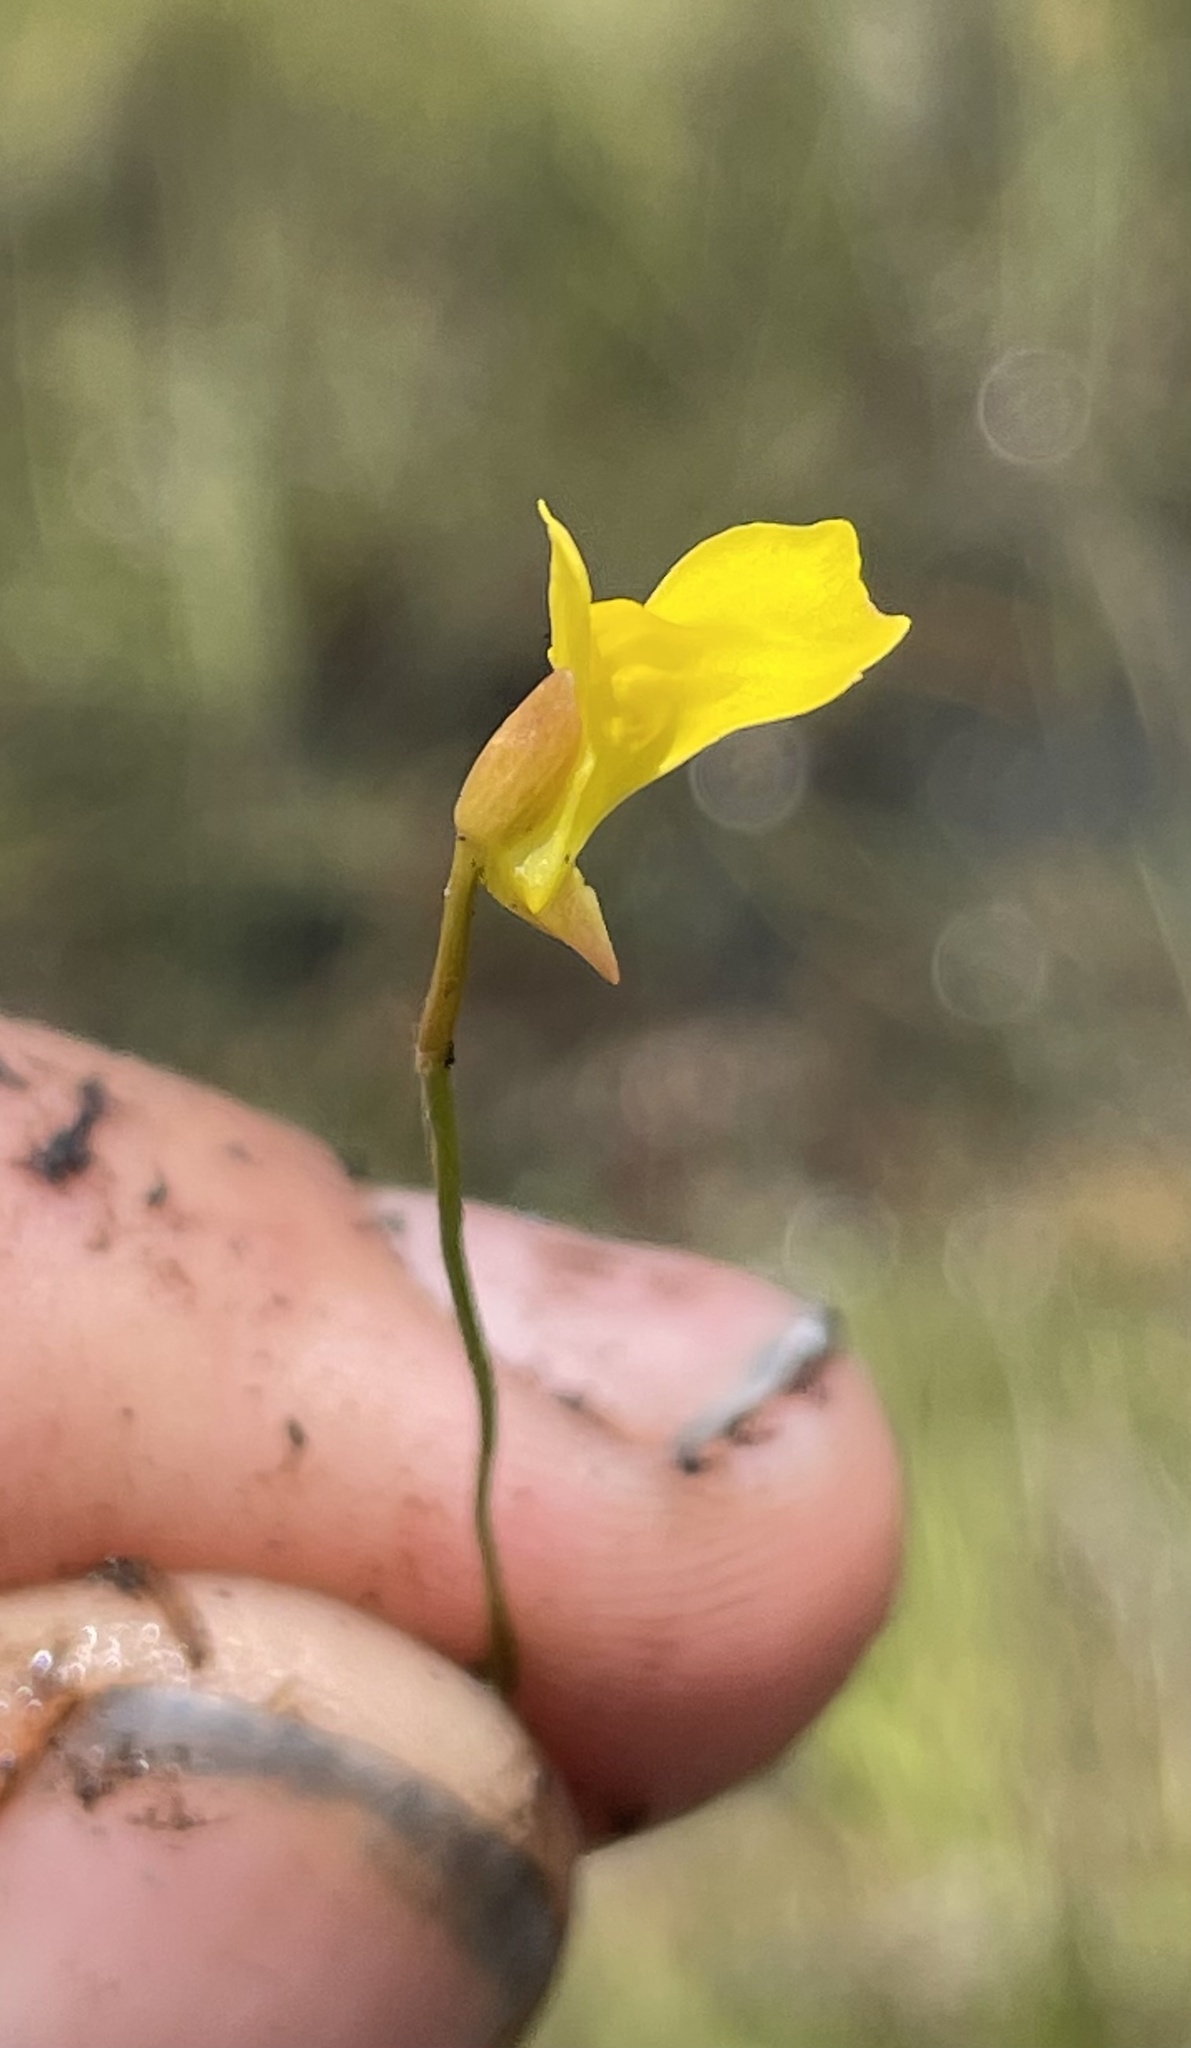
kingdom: Plantae
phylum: Tracheophyta
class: Magnoliopsida
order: Lamiales
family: Lentibulariaceae
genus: Utricularia
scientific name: Utricularia scandens
